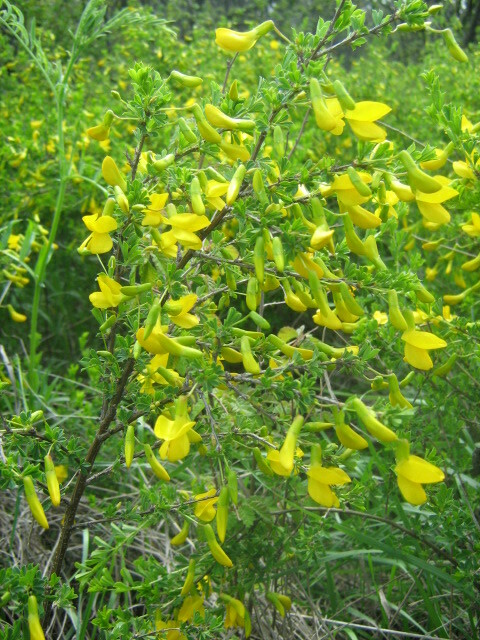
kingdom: Plantae
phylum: Tracheophyta
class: Magnoliopsida
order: Fabales
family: Fabaceae
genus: Caragana
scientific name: Caragana frutex
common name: Russian peashrub
